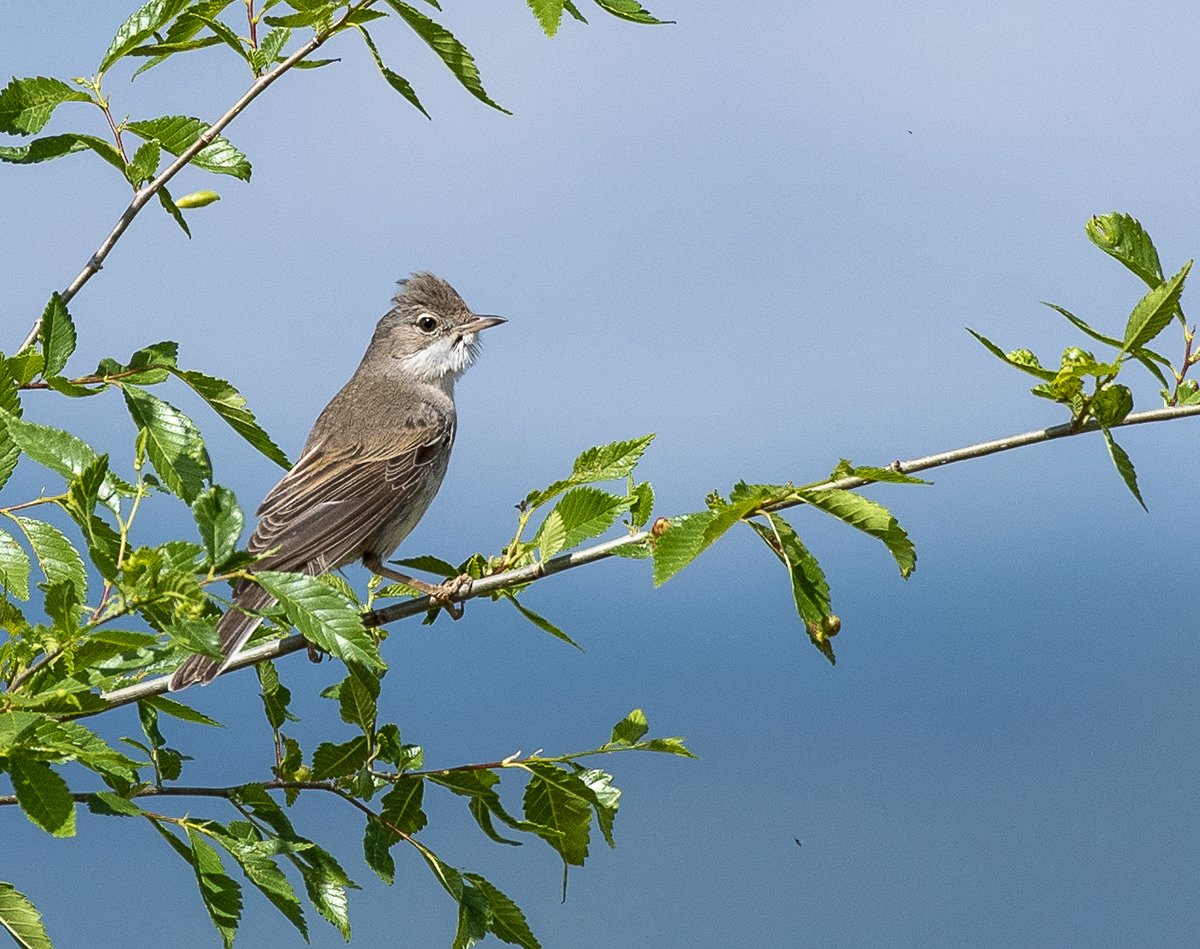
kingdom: Animalia
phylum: Chordata
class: Aves
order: Passeriformes
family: Sylviidae
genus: Sylvia
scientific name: Sylvia communis
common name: Common whitethroat
